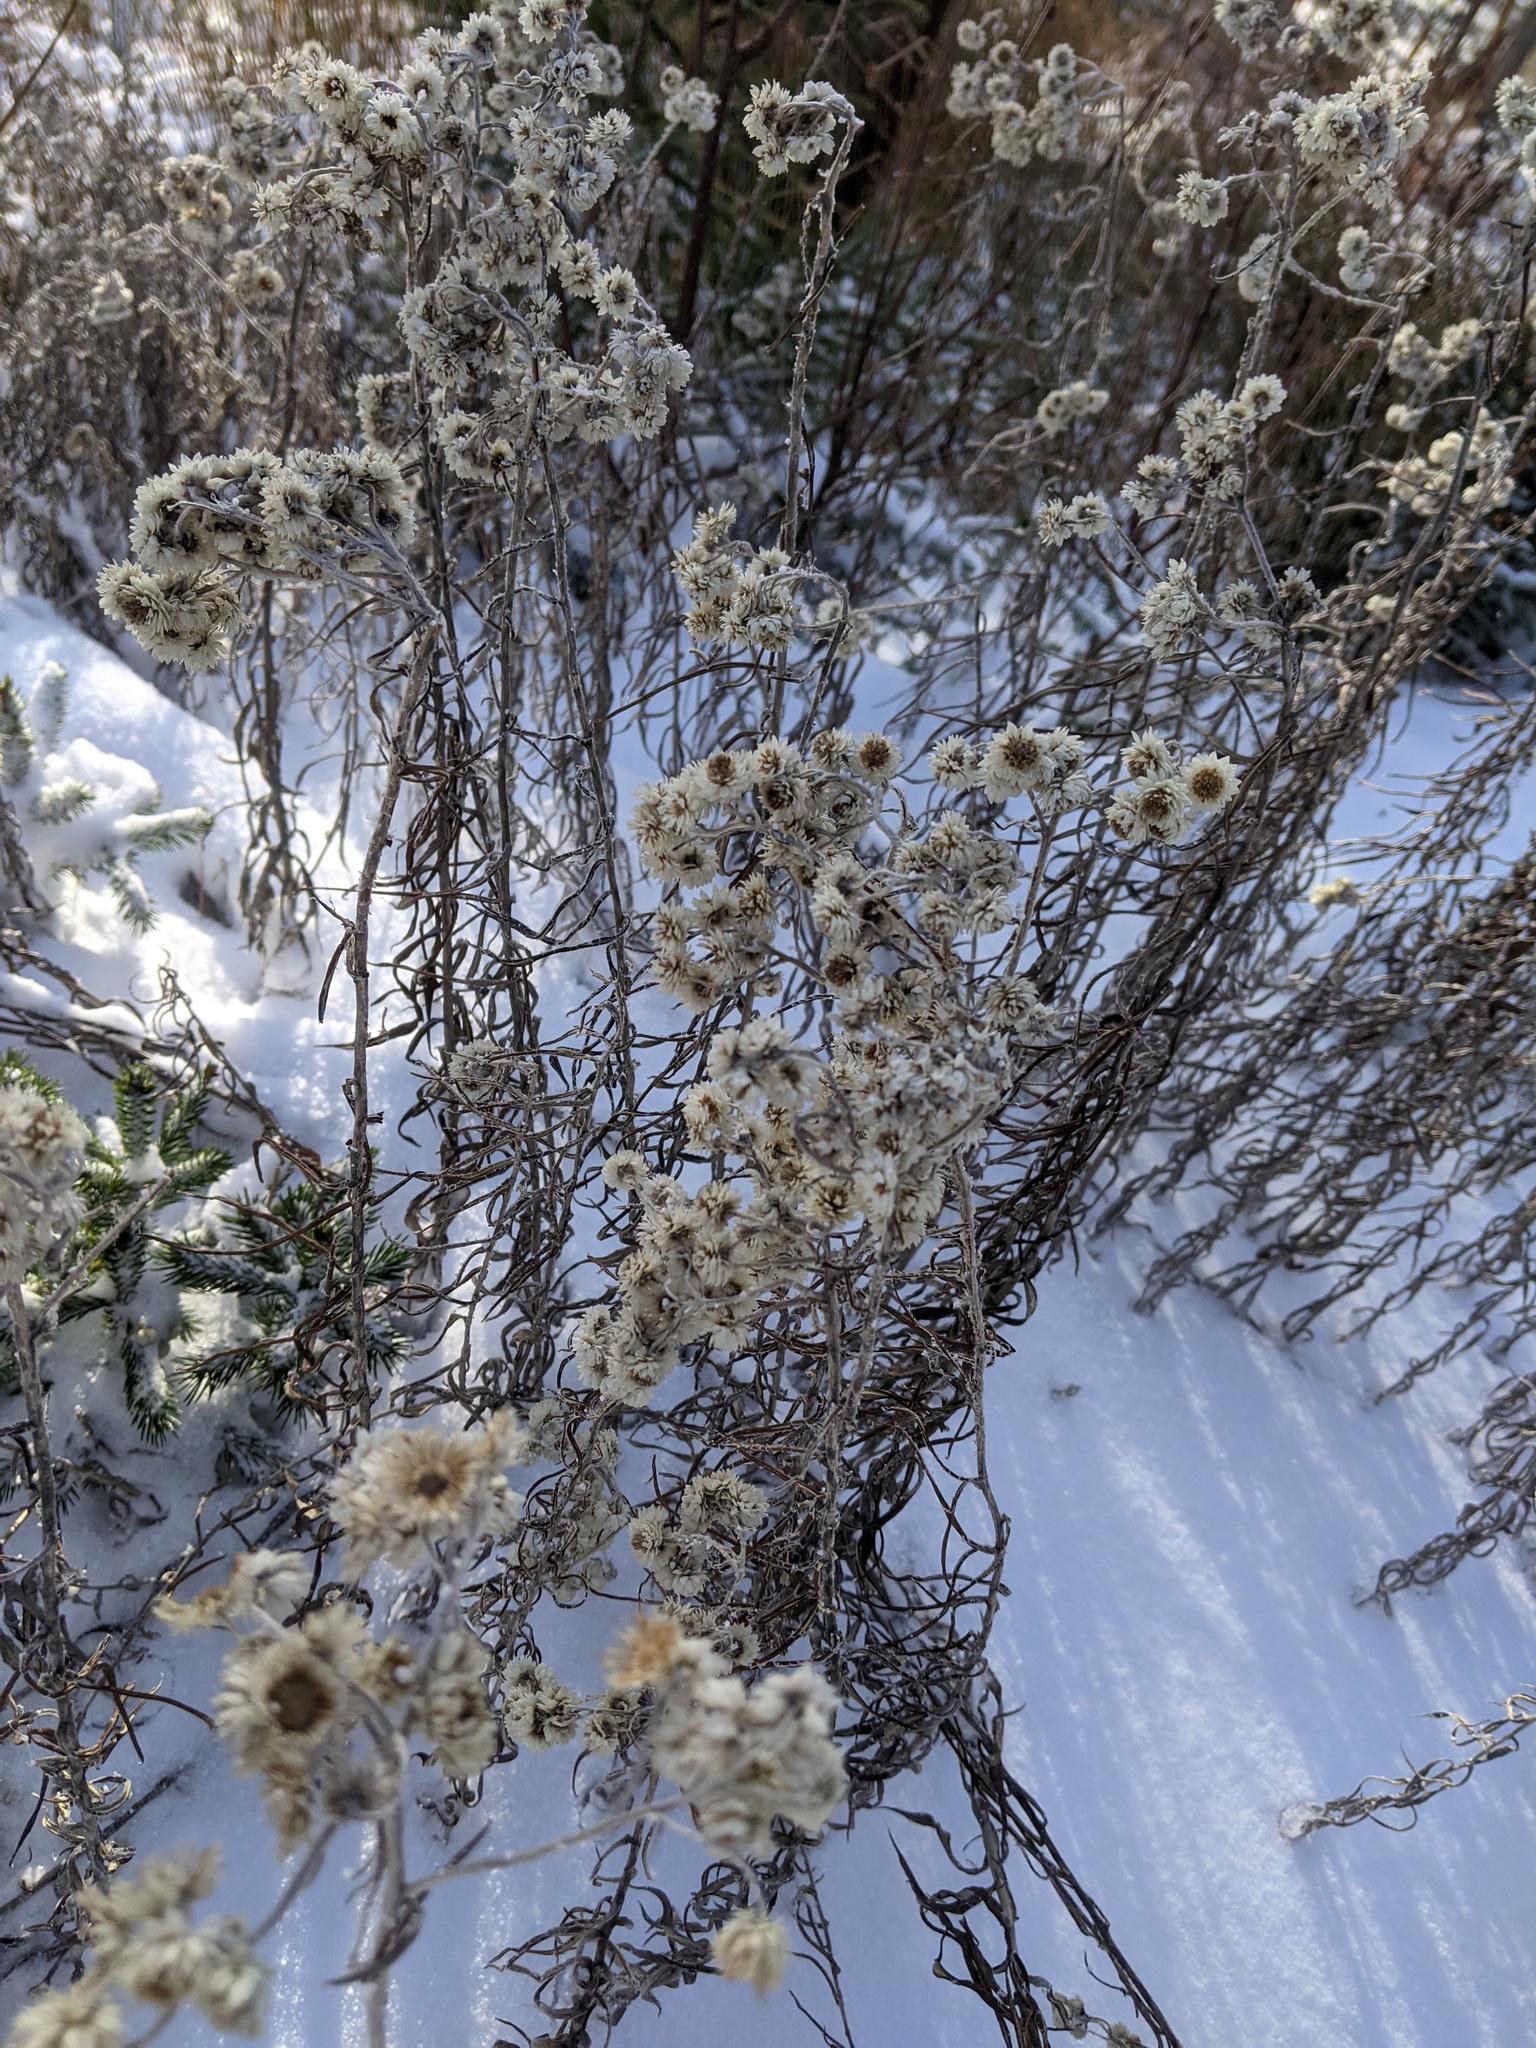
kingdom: Plantae
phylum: Tracheophyta
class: Magnoliopsida
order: Asterales
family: Asteraceae
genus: Anaphalis
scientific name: Anaphalis margaritacea
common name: Pearly everlasting
